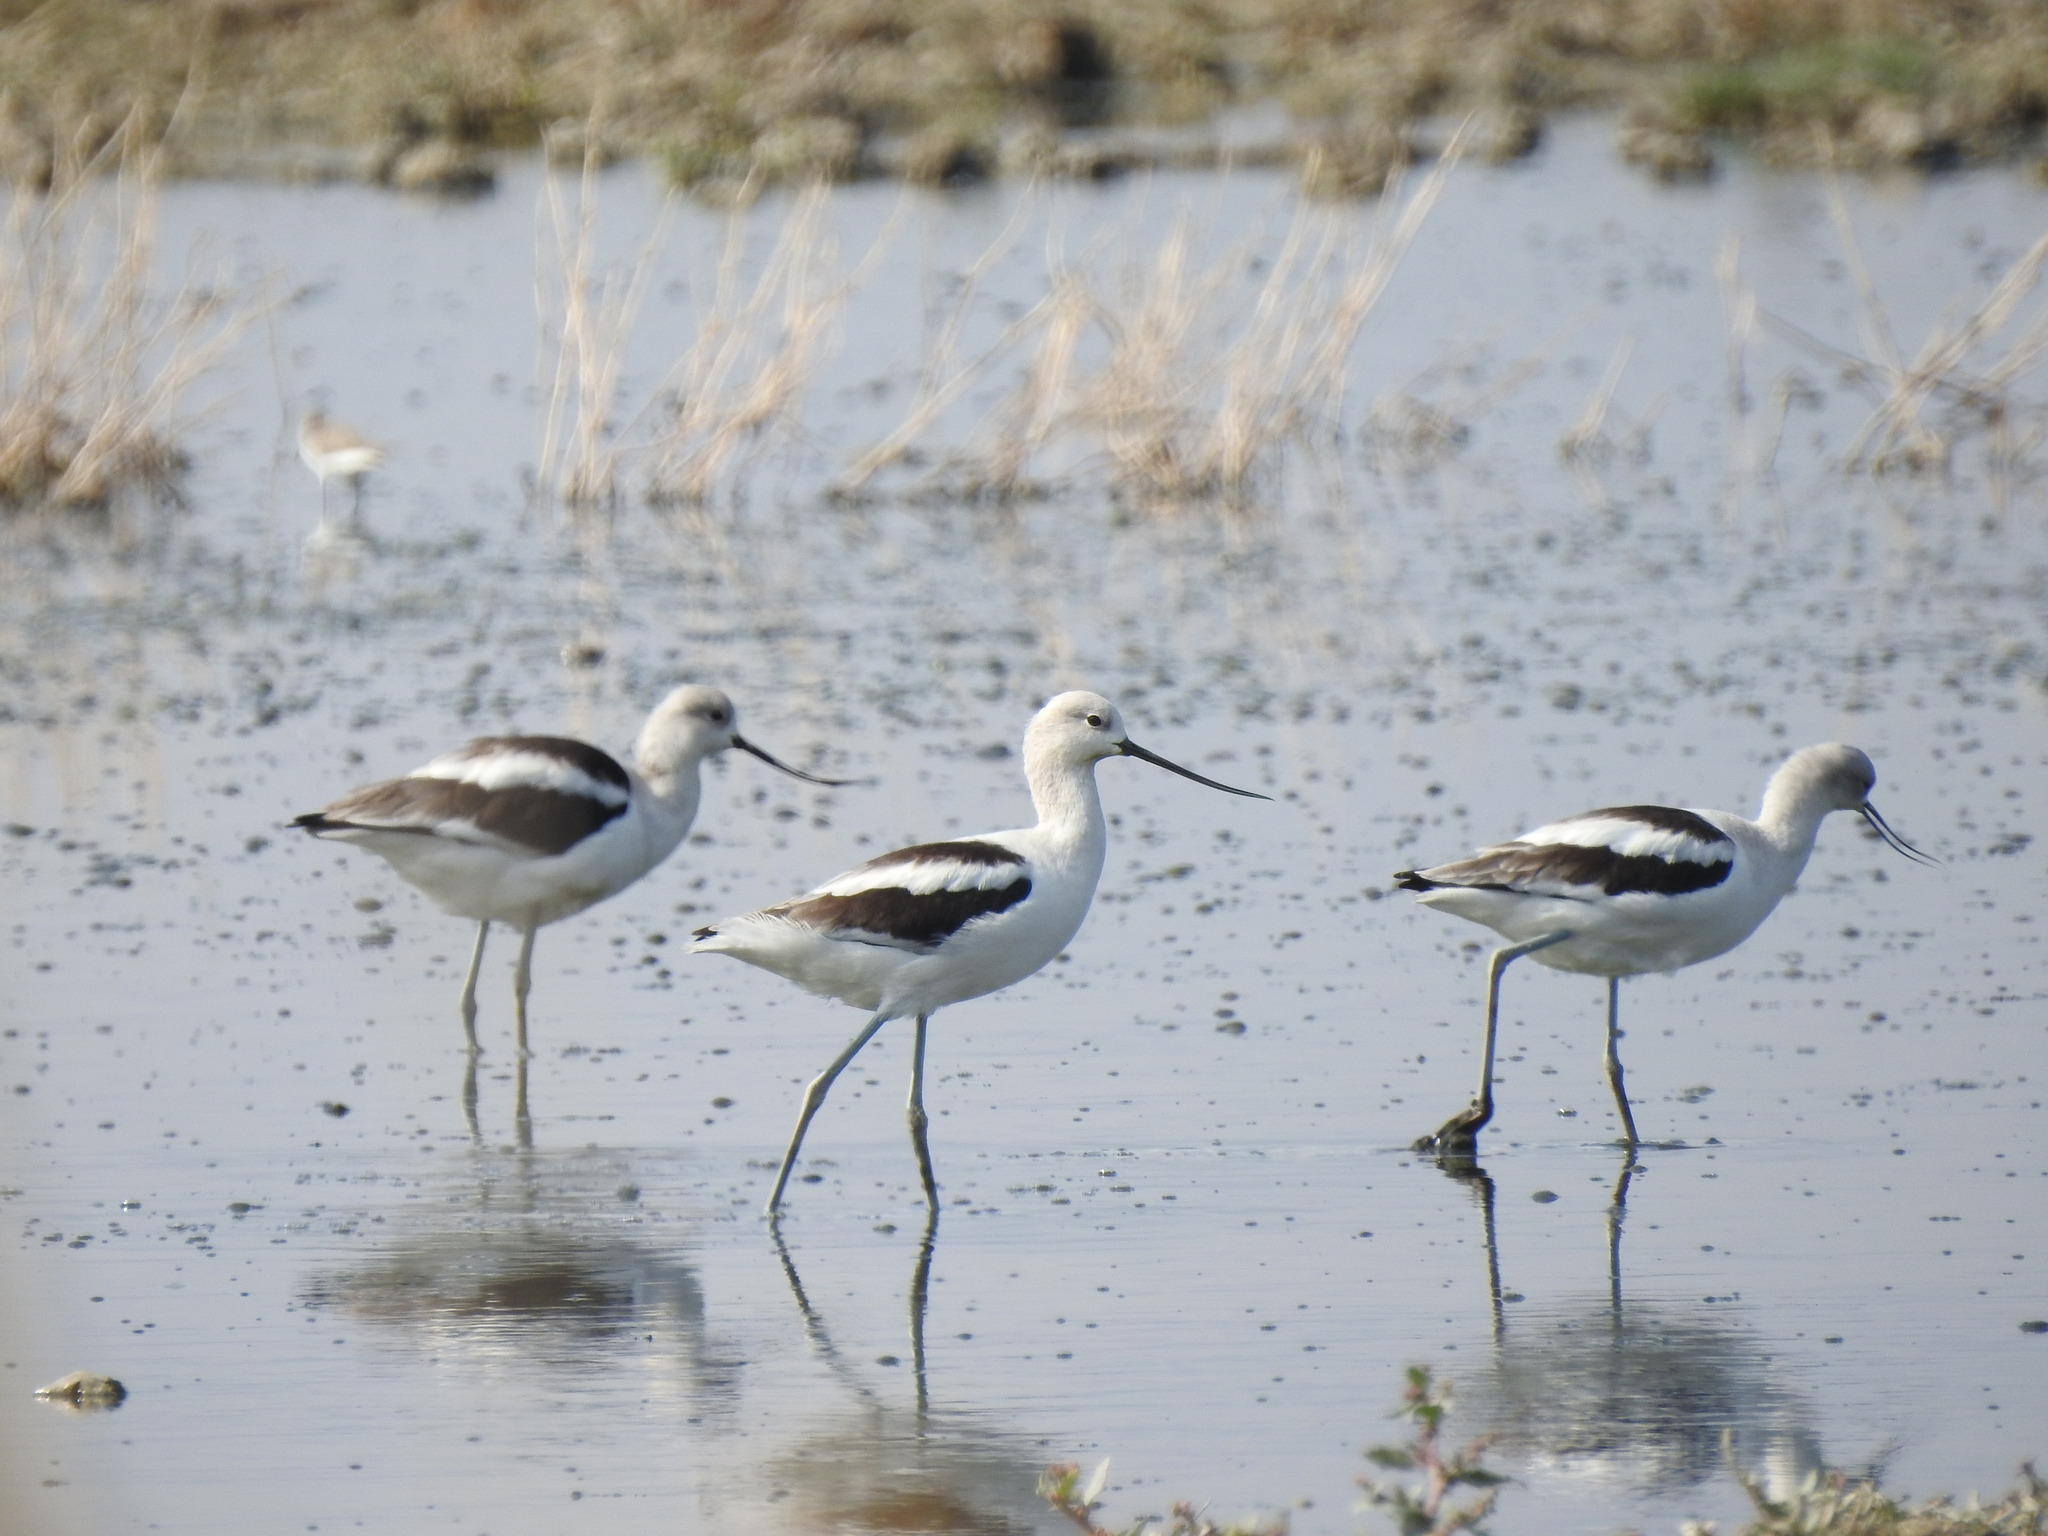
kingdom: Animalia
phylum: Chordata
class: Aves
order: Charadriiformes
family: Recurvirostridae
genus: Recurvirostra
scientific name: Recurvirostra americana
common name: American avocet
